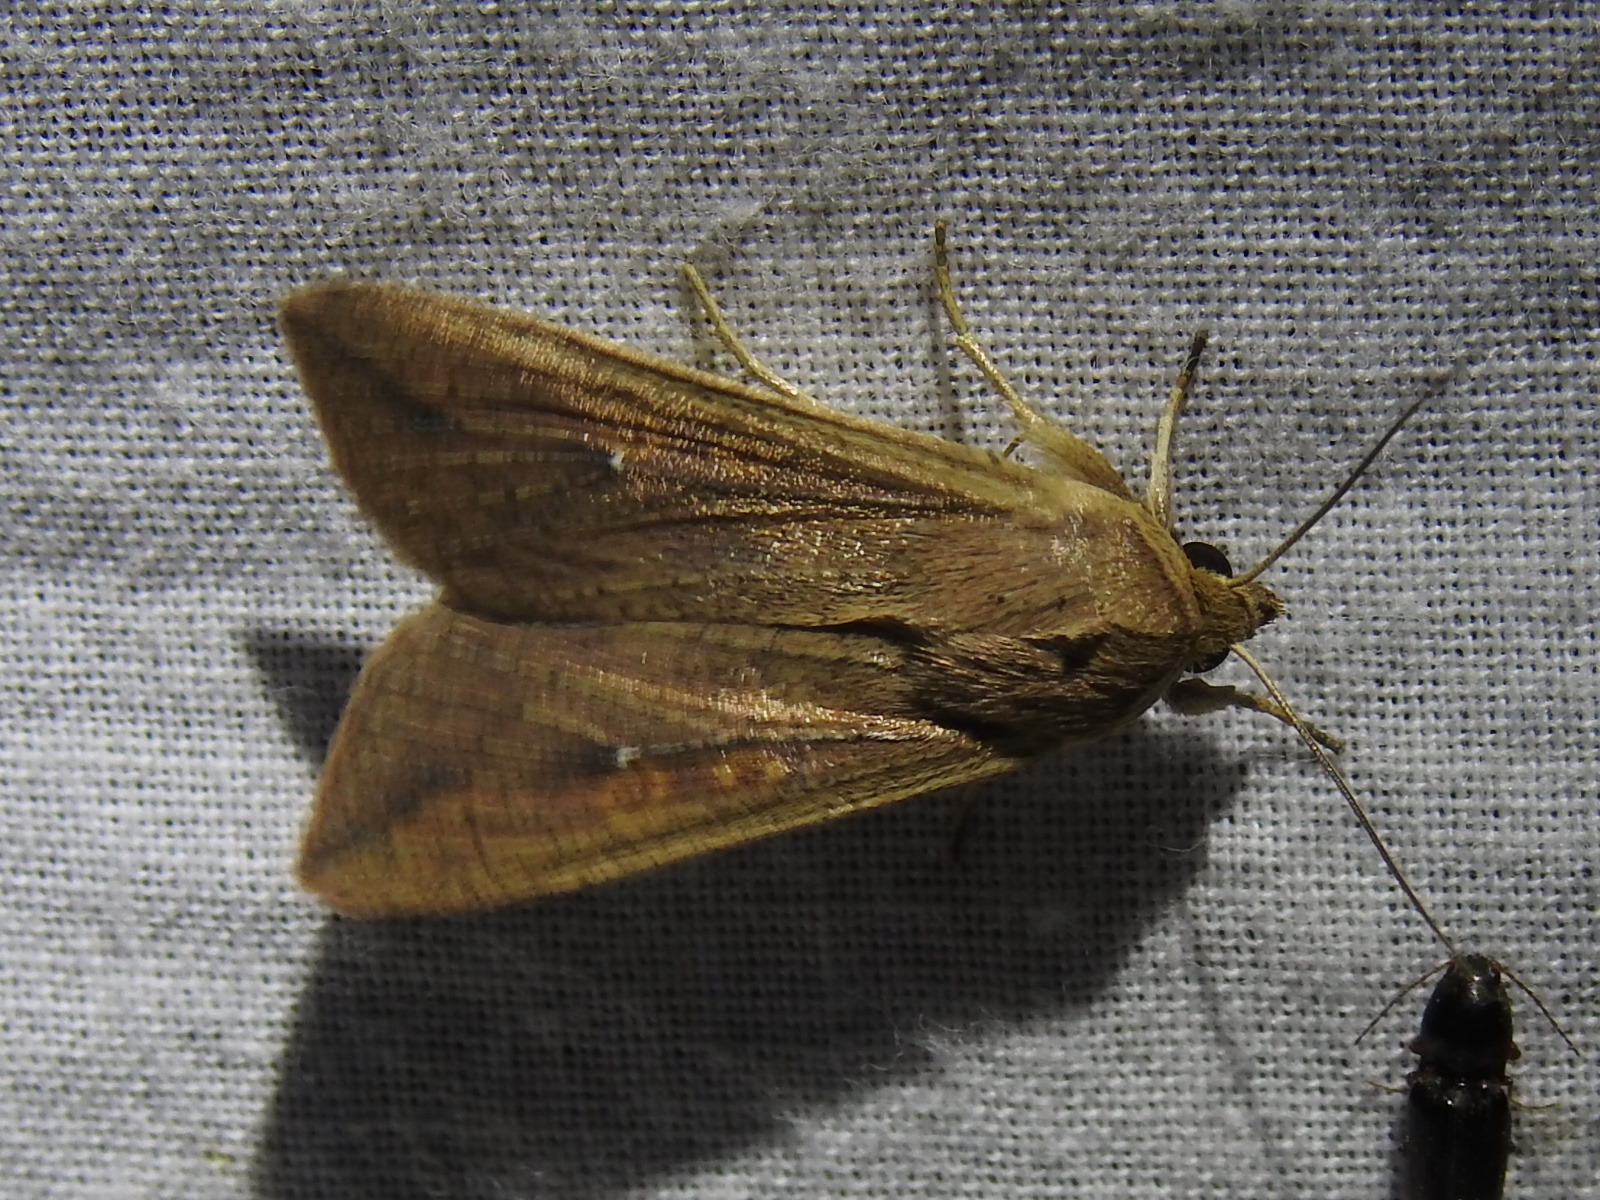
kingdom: Animalia
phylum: Arthropoda
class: Insecta
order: Lepidoptera
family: Noctuidae
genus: Mythimna
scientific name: Mythimna unipuncta
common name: White-speck
